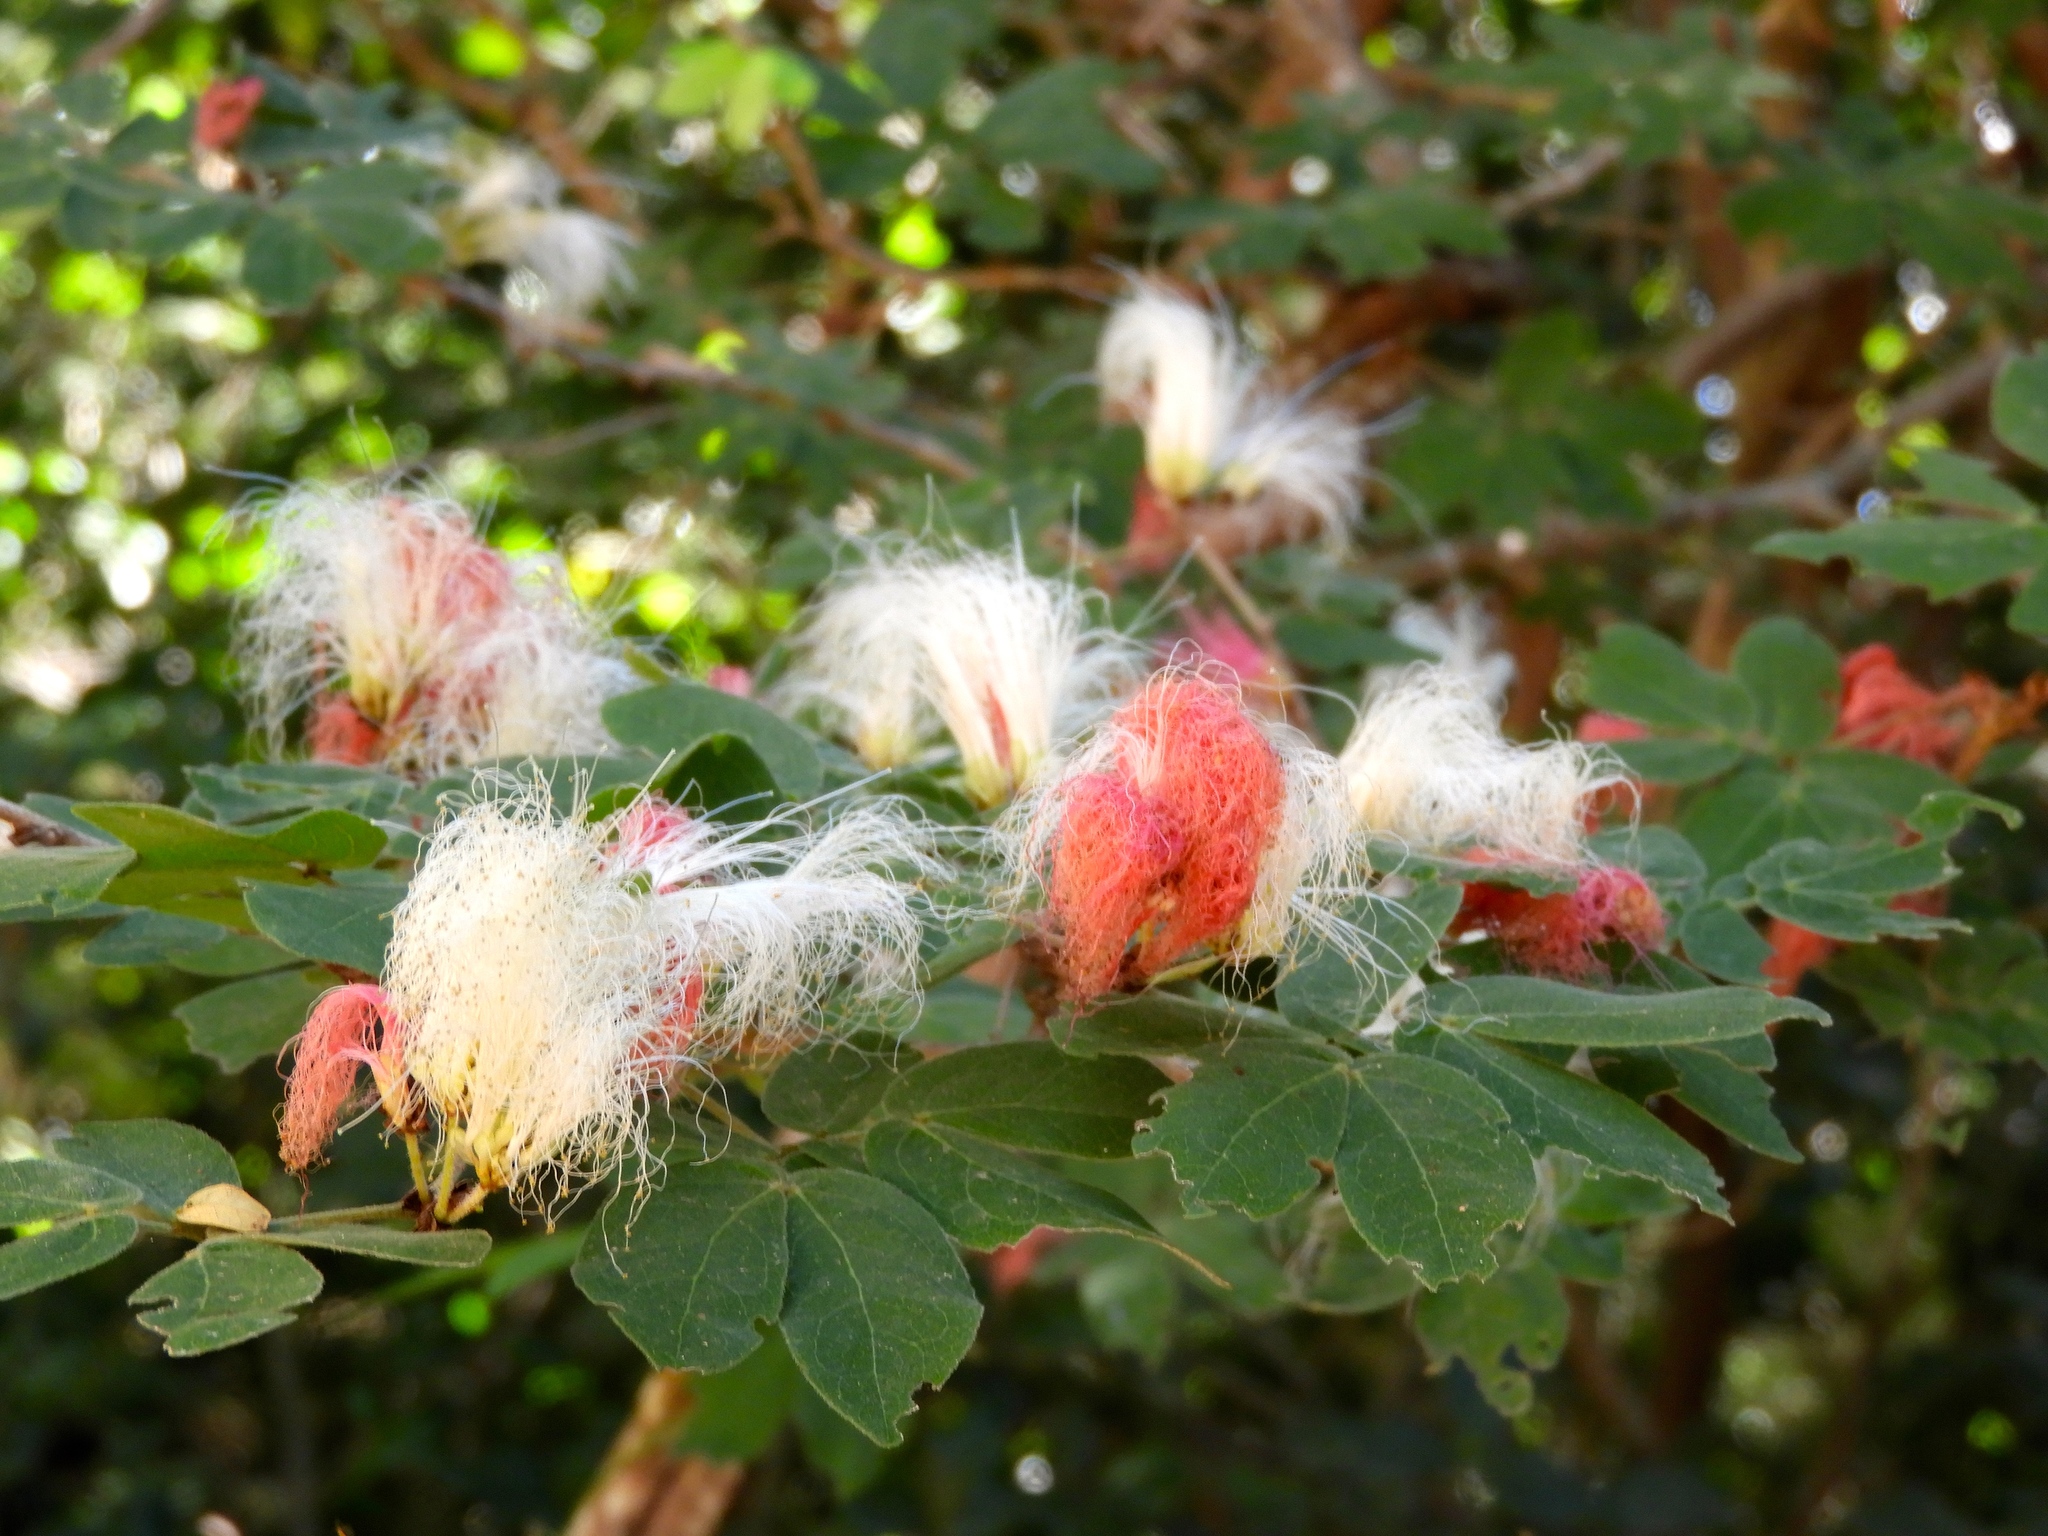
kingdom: Plantae
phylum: Tracheophyta
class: Magnoliopsida
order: Fabales
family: Fabaceae
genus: Calliandra
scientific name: Calliandra tergemina
